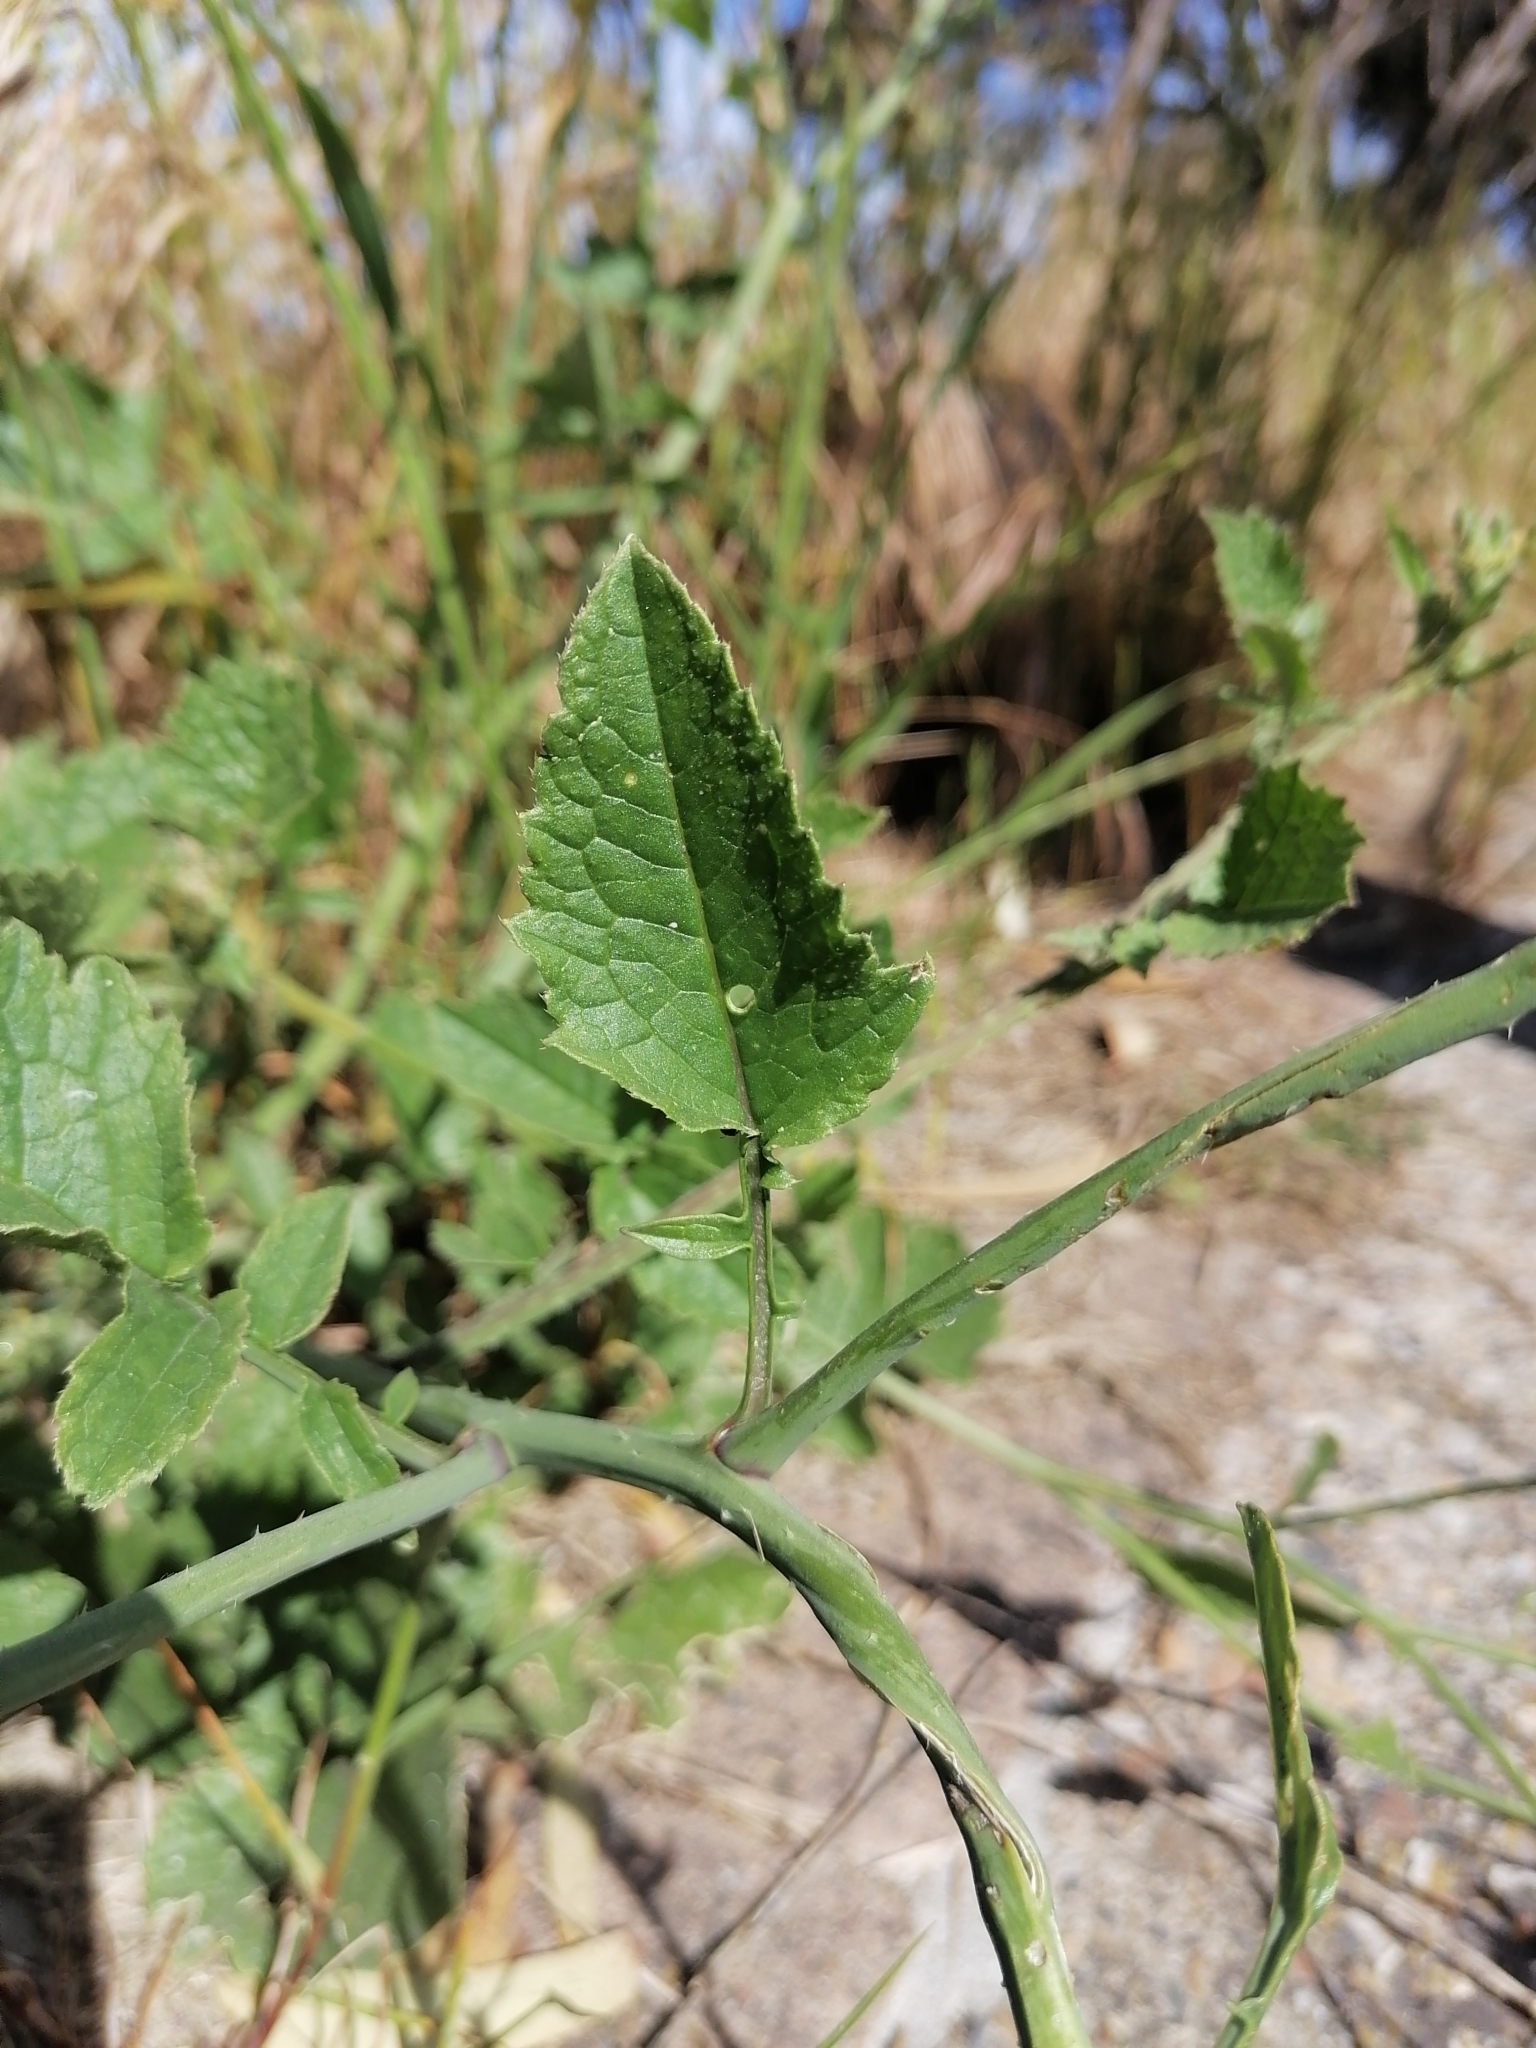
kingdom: Plantae
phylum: Tracheophyta
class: Magnoliopsida
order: Brassicales
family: Brassicaceae
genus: Raphanus
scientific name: Raphanus raphanistrum
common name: Wild radish
